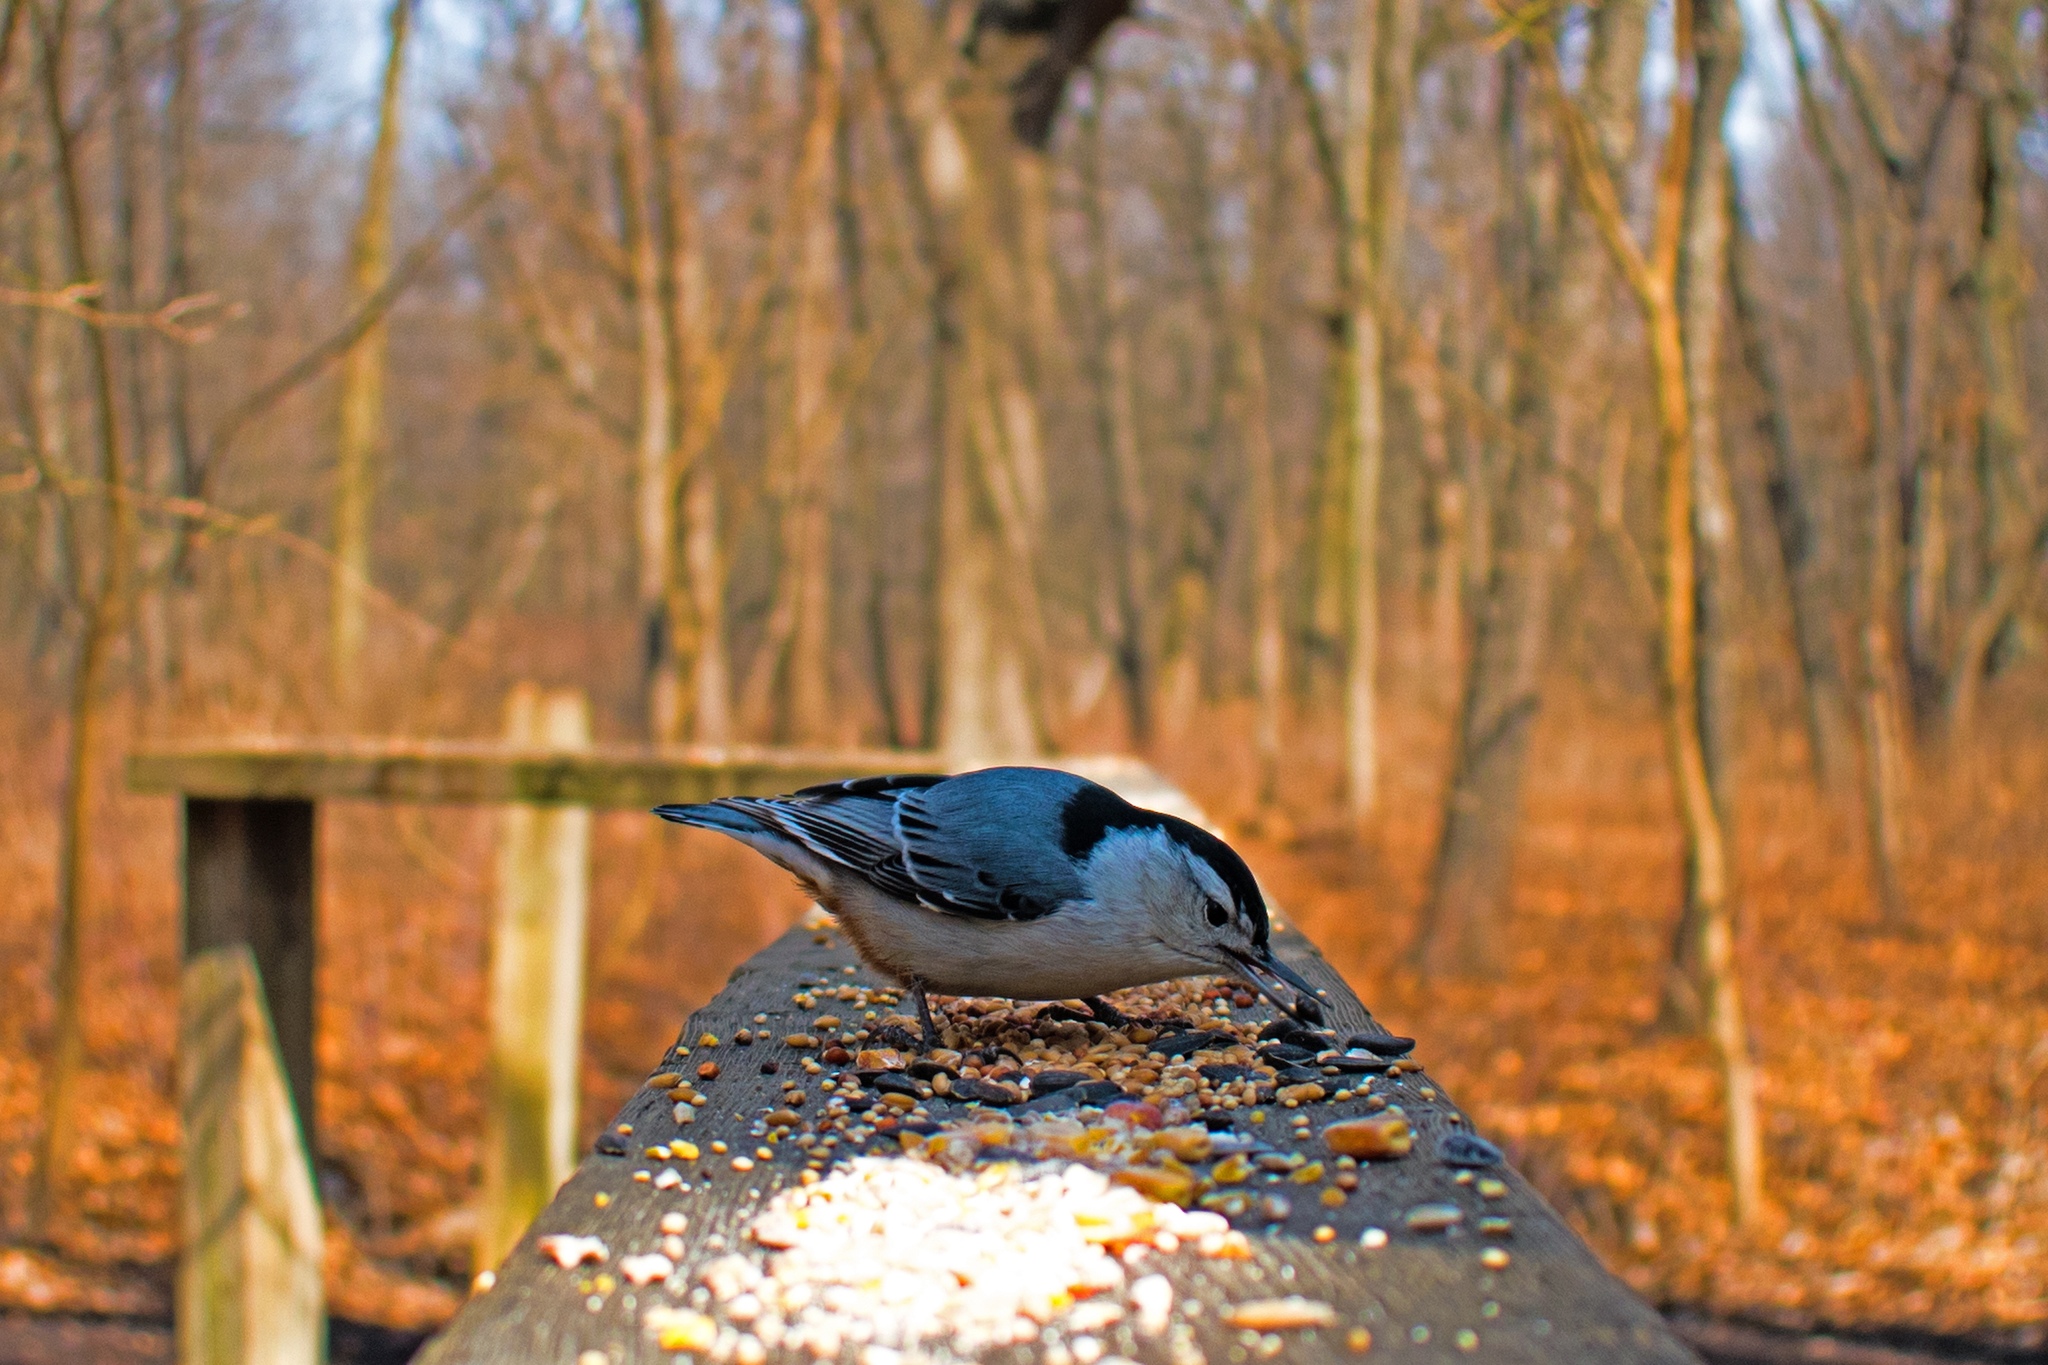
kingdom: Animalia
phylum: Chordata
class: Aves
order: Passeriformes
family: Sittidae
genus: Sitta
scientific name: Sitta carolinensis
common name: White-breasted nuthatch
